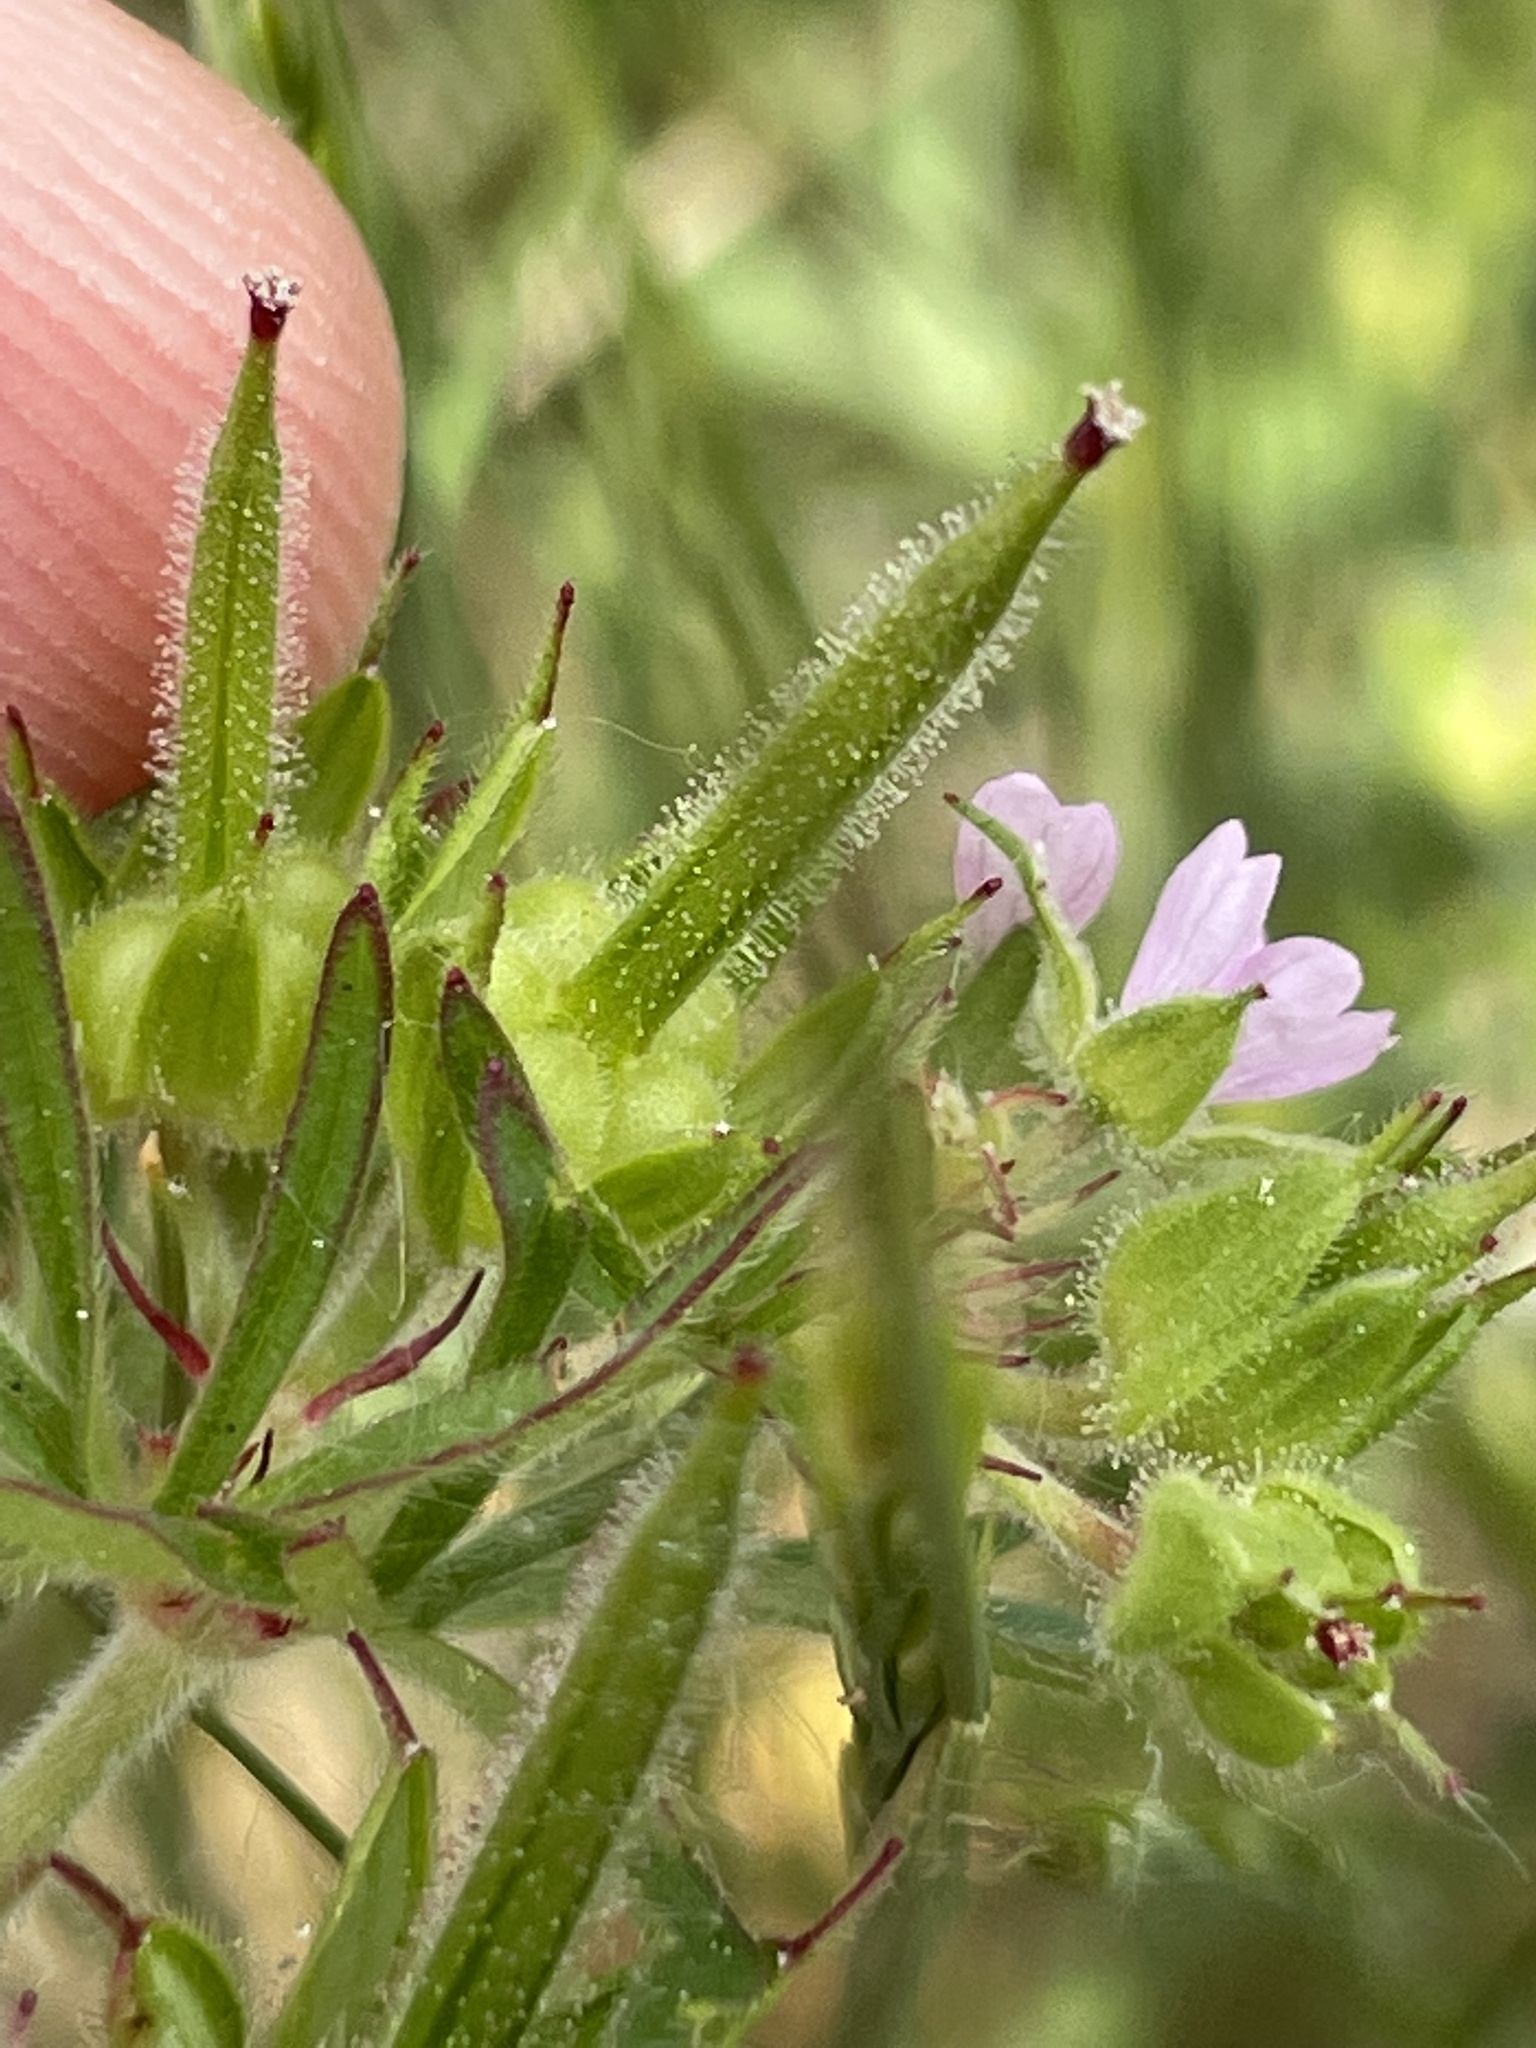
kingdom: Plantae
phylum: Tracheophyta
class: Magnoliopsida
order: Geraniales
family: Geraniaceae
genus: Geranium
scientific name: Geranium dissectum
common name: Cut-leaved crane's-bill
